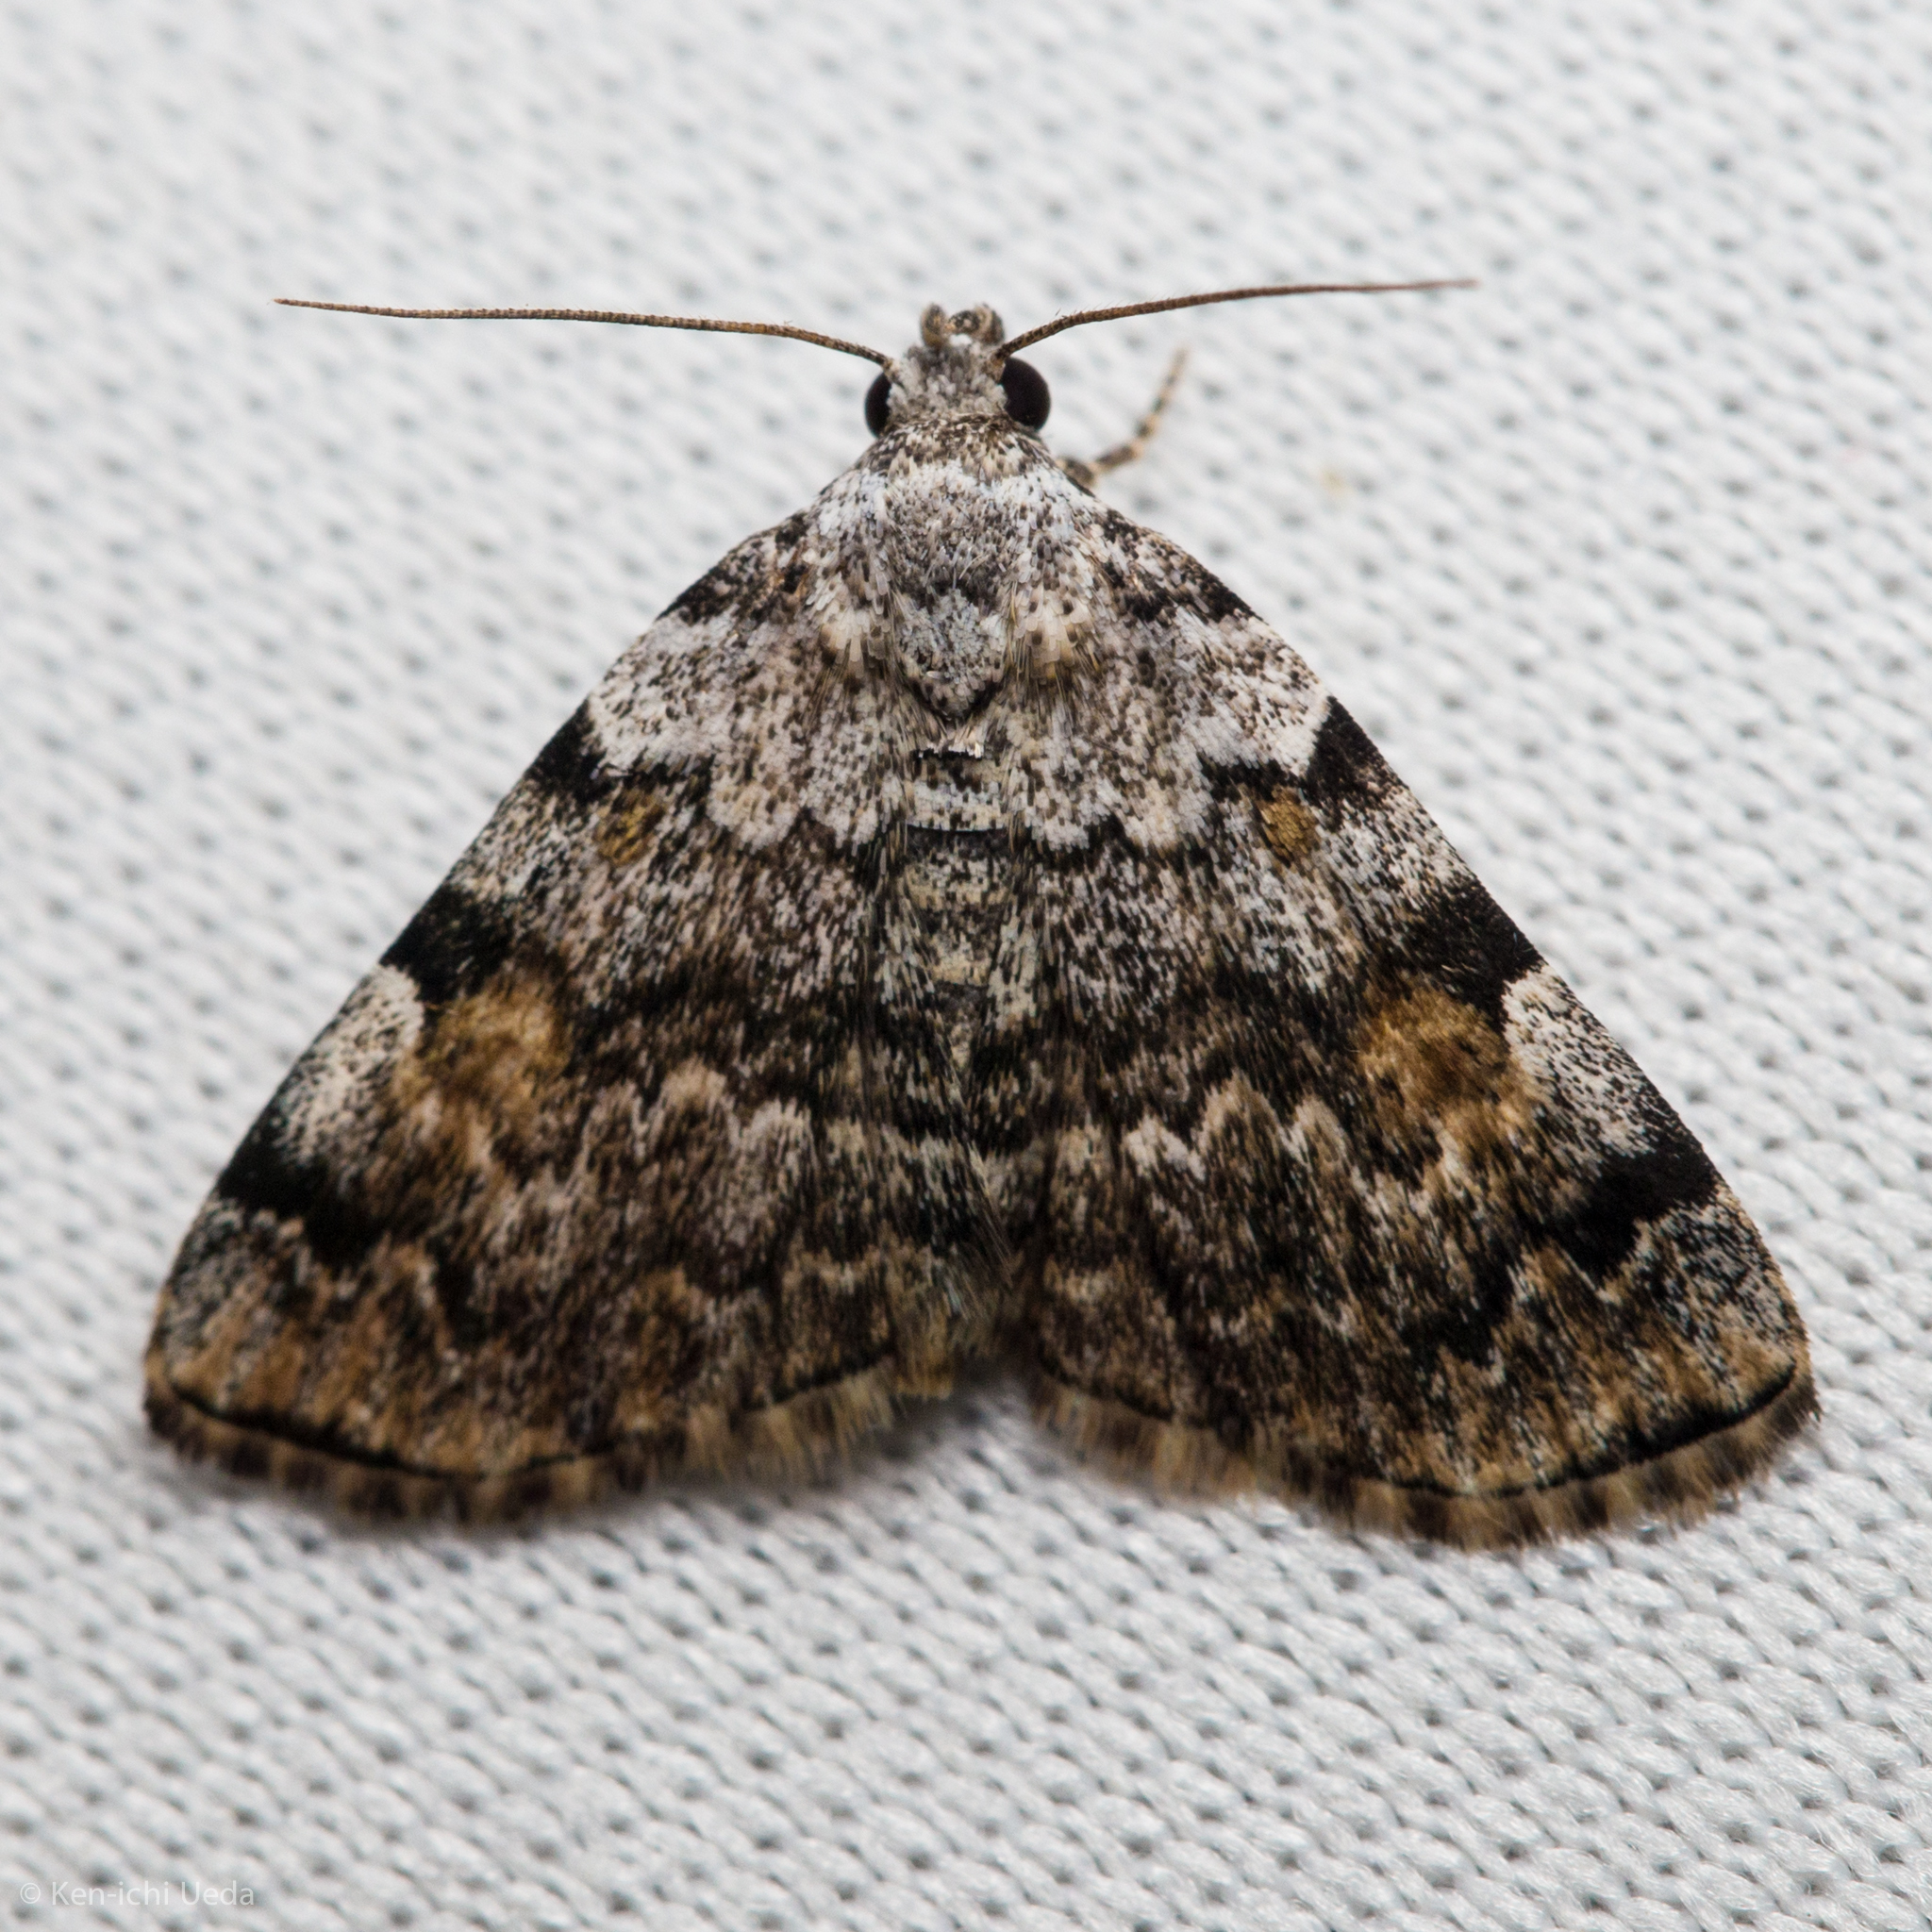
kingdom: Animalia
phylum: Arthropoda
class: Insecta
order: Lepidoptera
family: Erebidae
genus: Idia
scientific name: Idia americalis
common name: American idia moth
